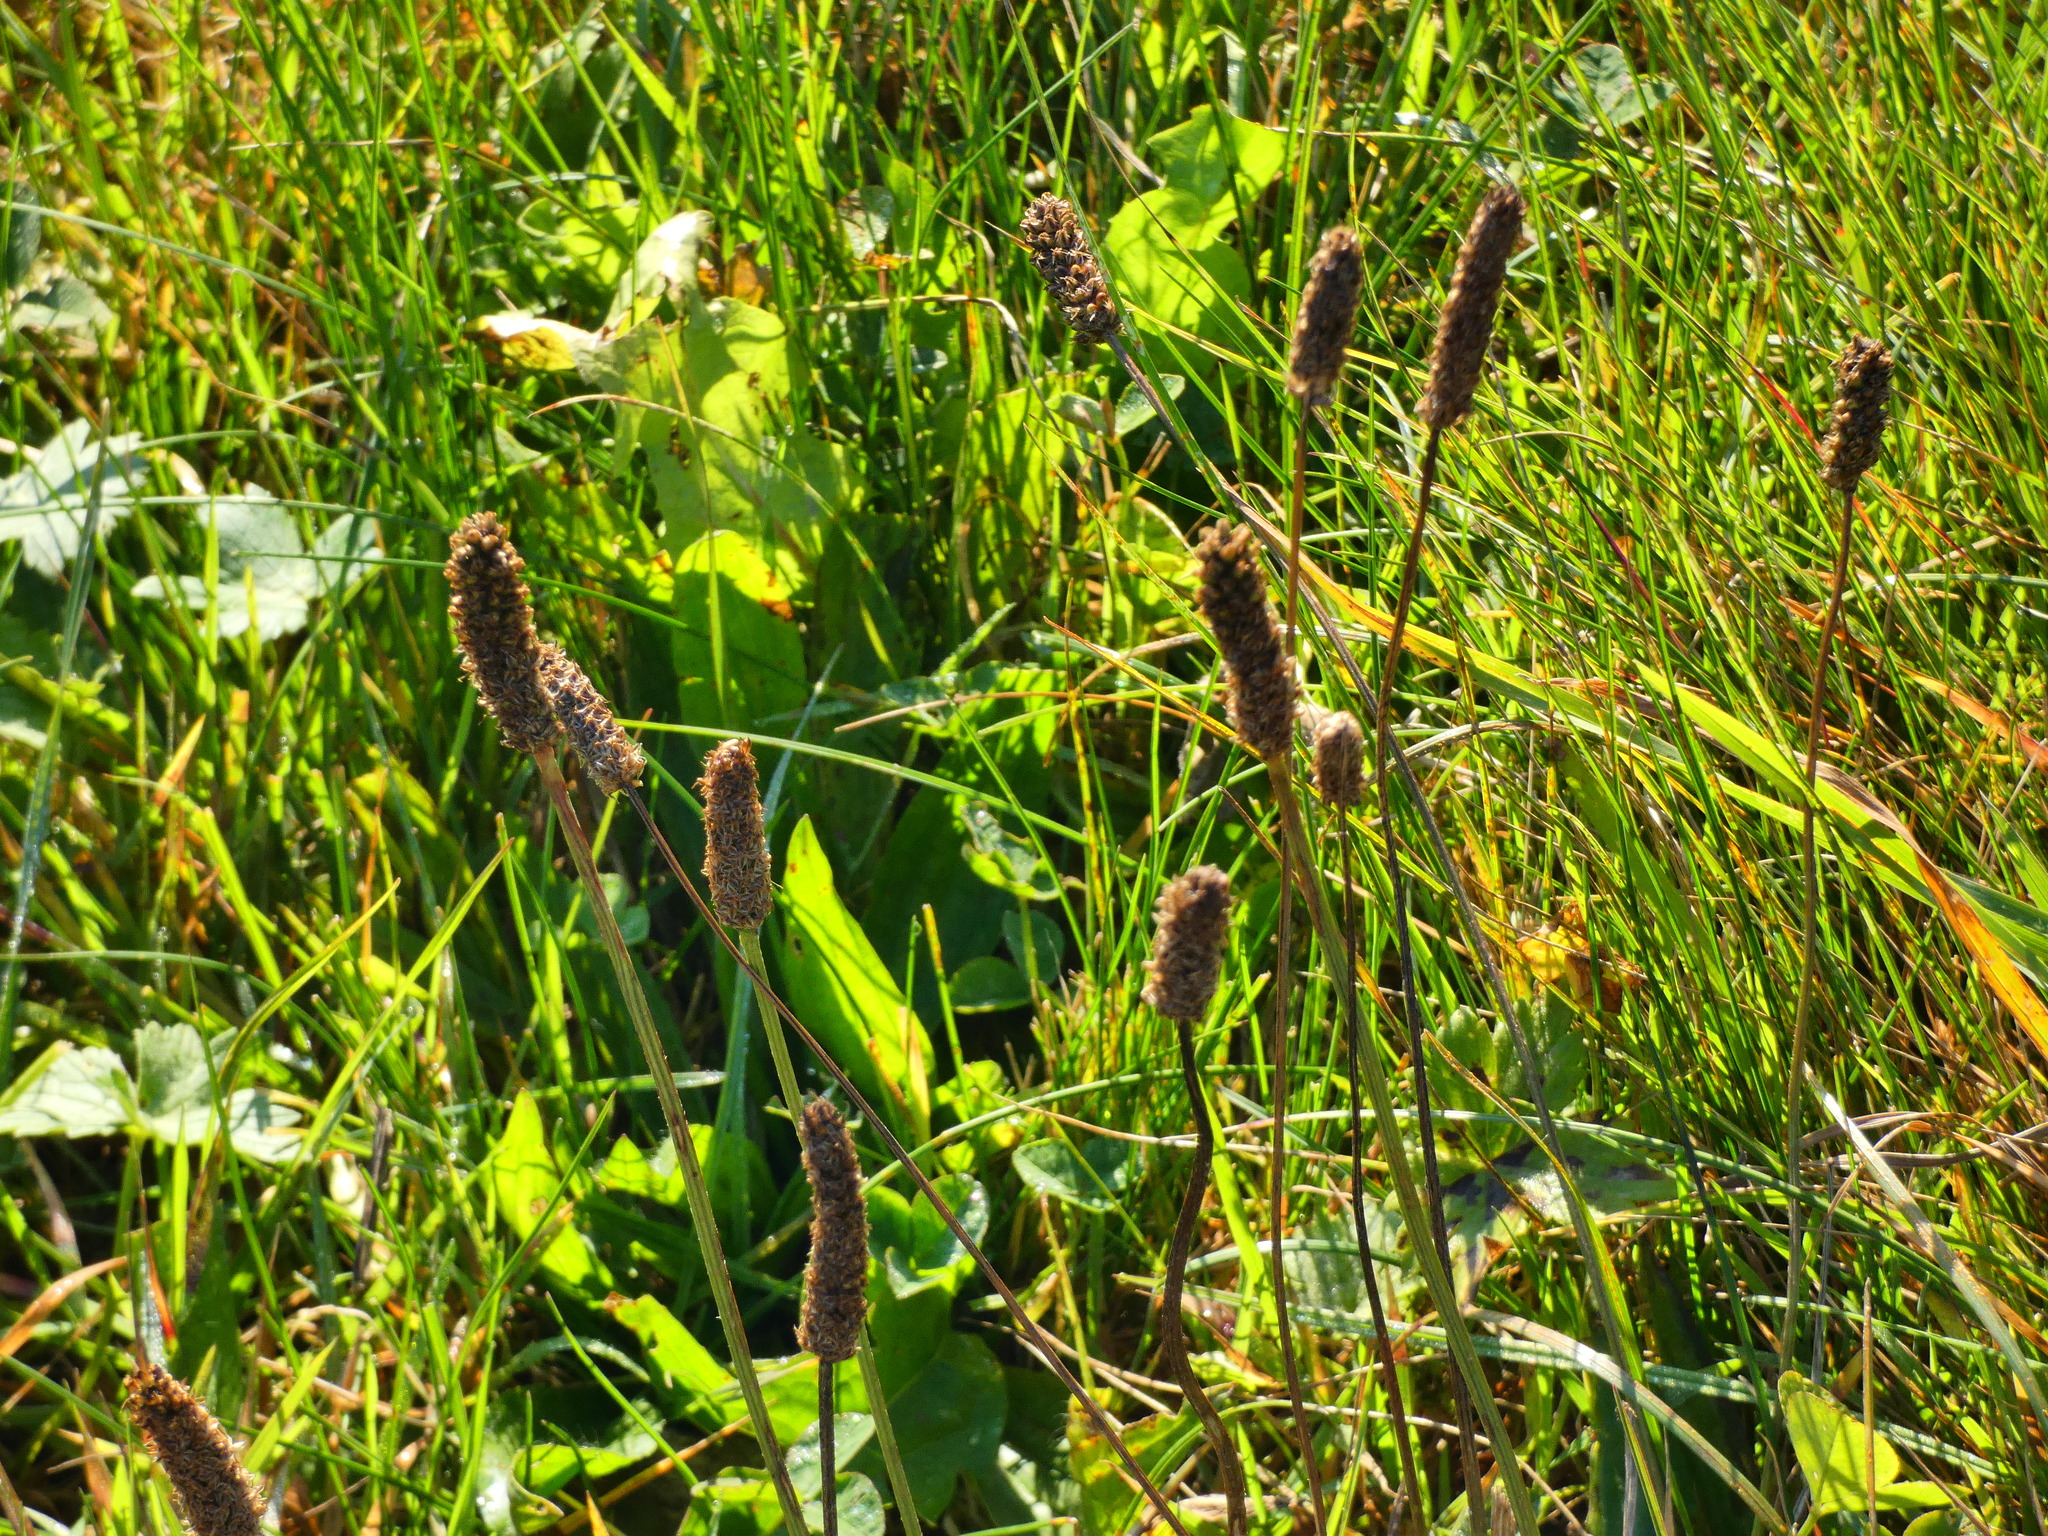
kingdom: Plantae
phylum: Tracheophyta
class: Magnoliopsida
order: Lamiales
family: Plantaginaceae
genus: Plantago
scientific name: Plantago lanceolata
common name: Ribwort plantain
